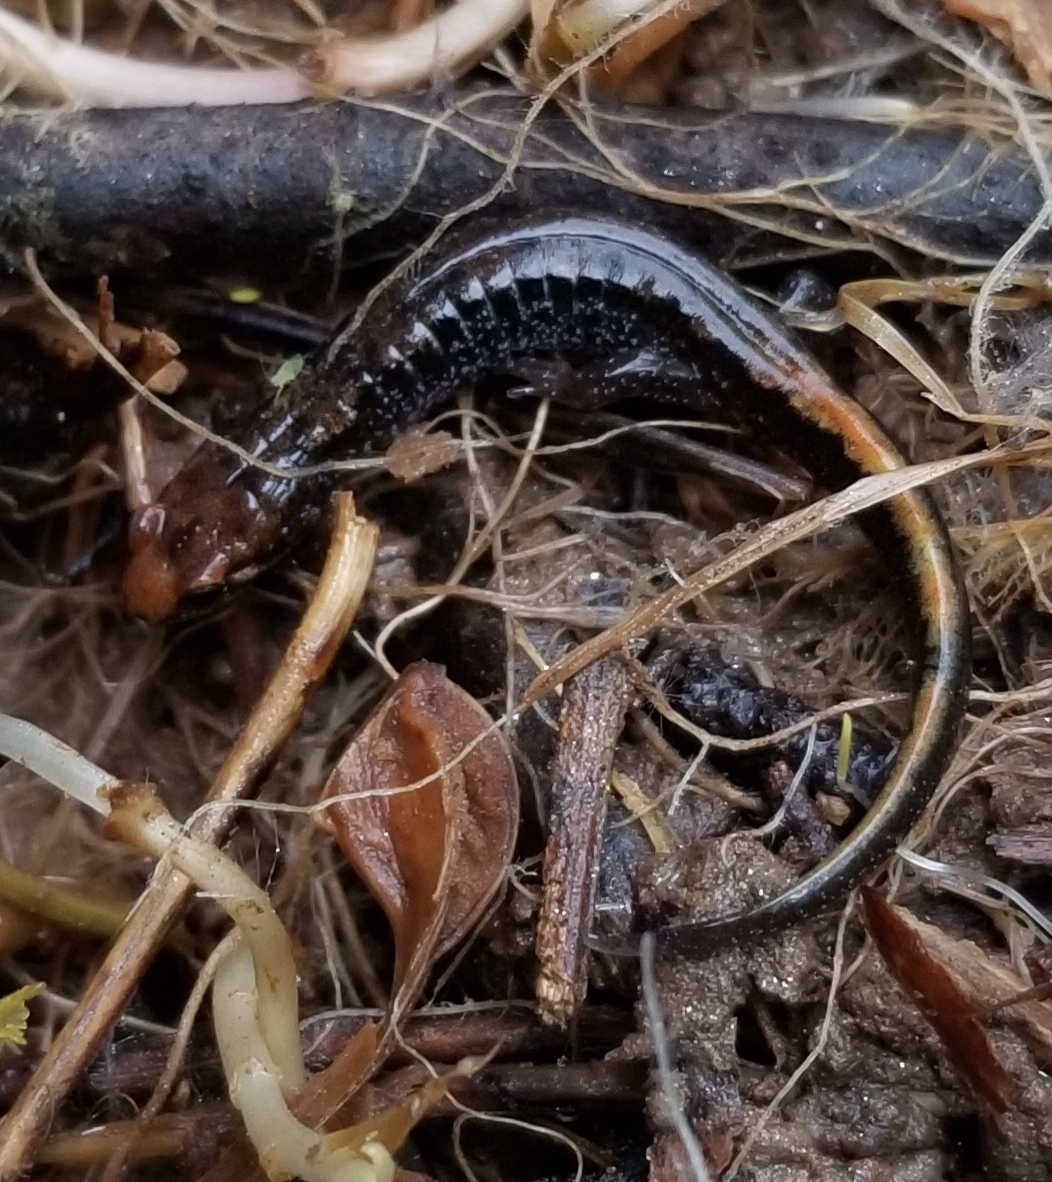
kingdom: Animalia
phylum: Chordata
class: Amphibia
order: Caudata
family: Plethodontidae
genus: Desmognathus
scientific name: Desmognathus carolinensis
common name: Carolina mountain dusky salamander
